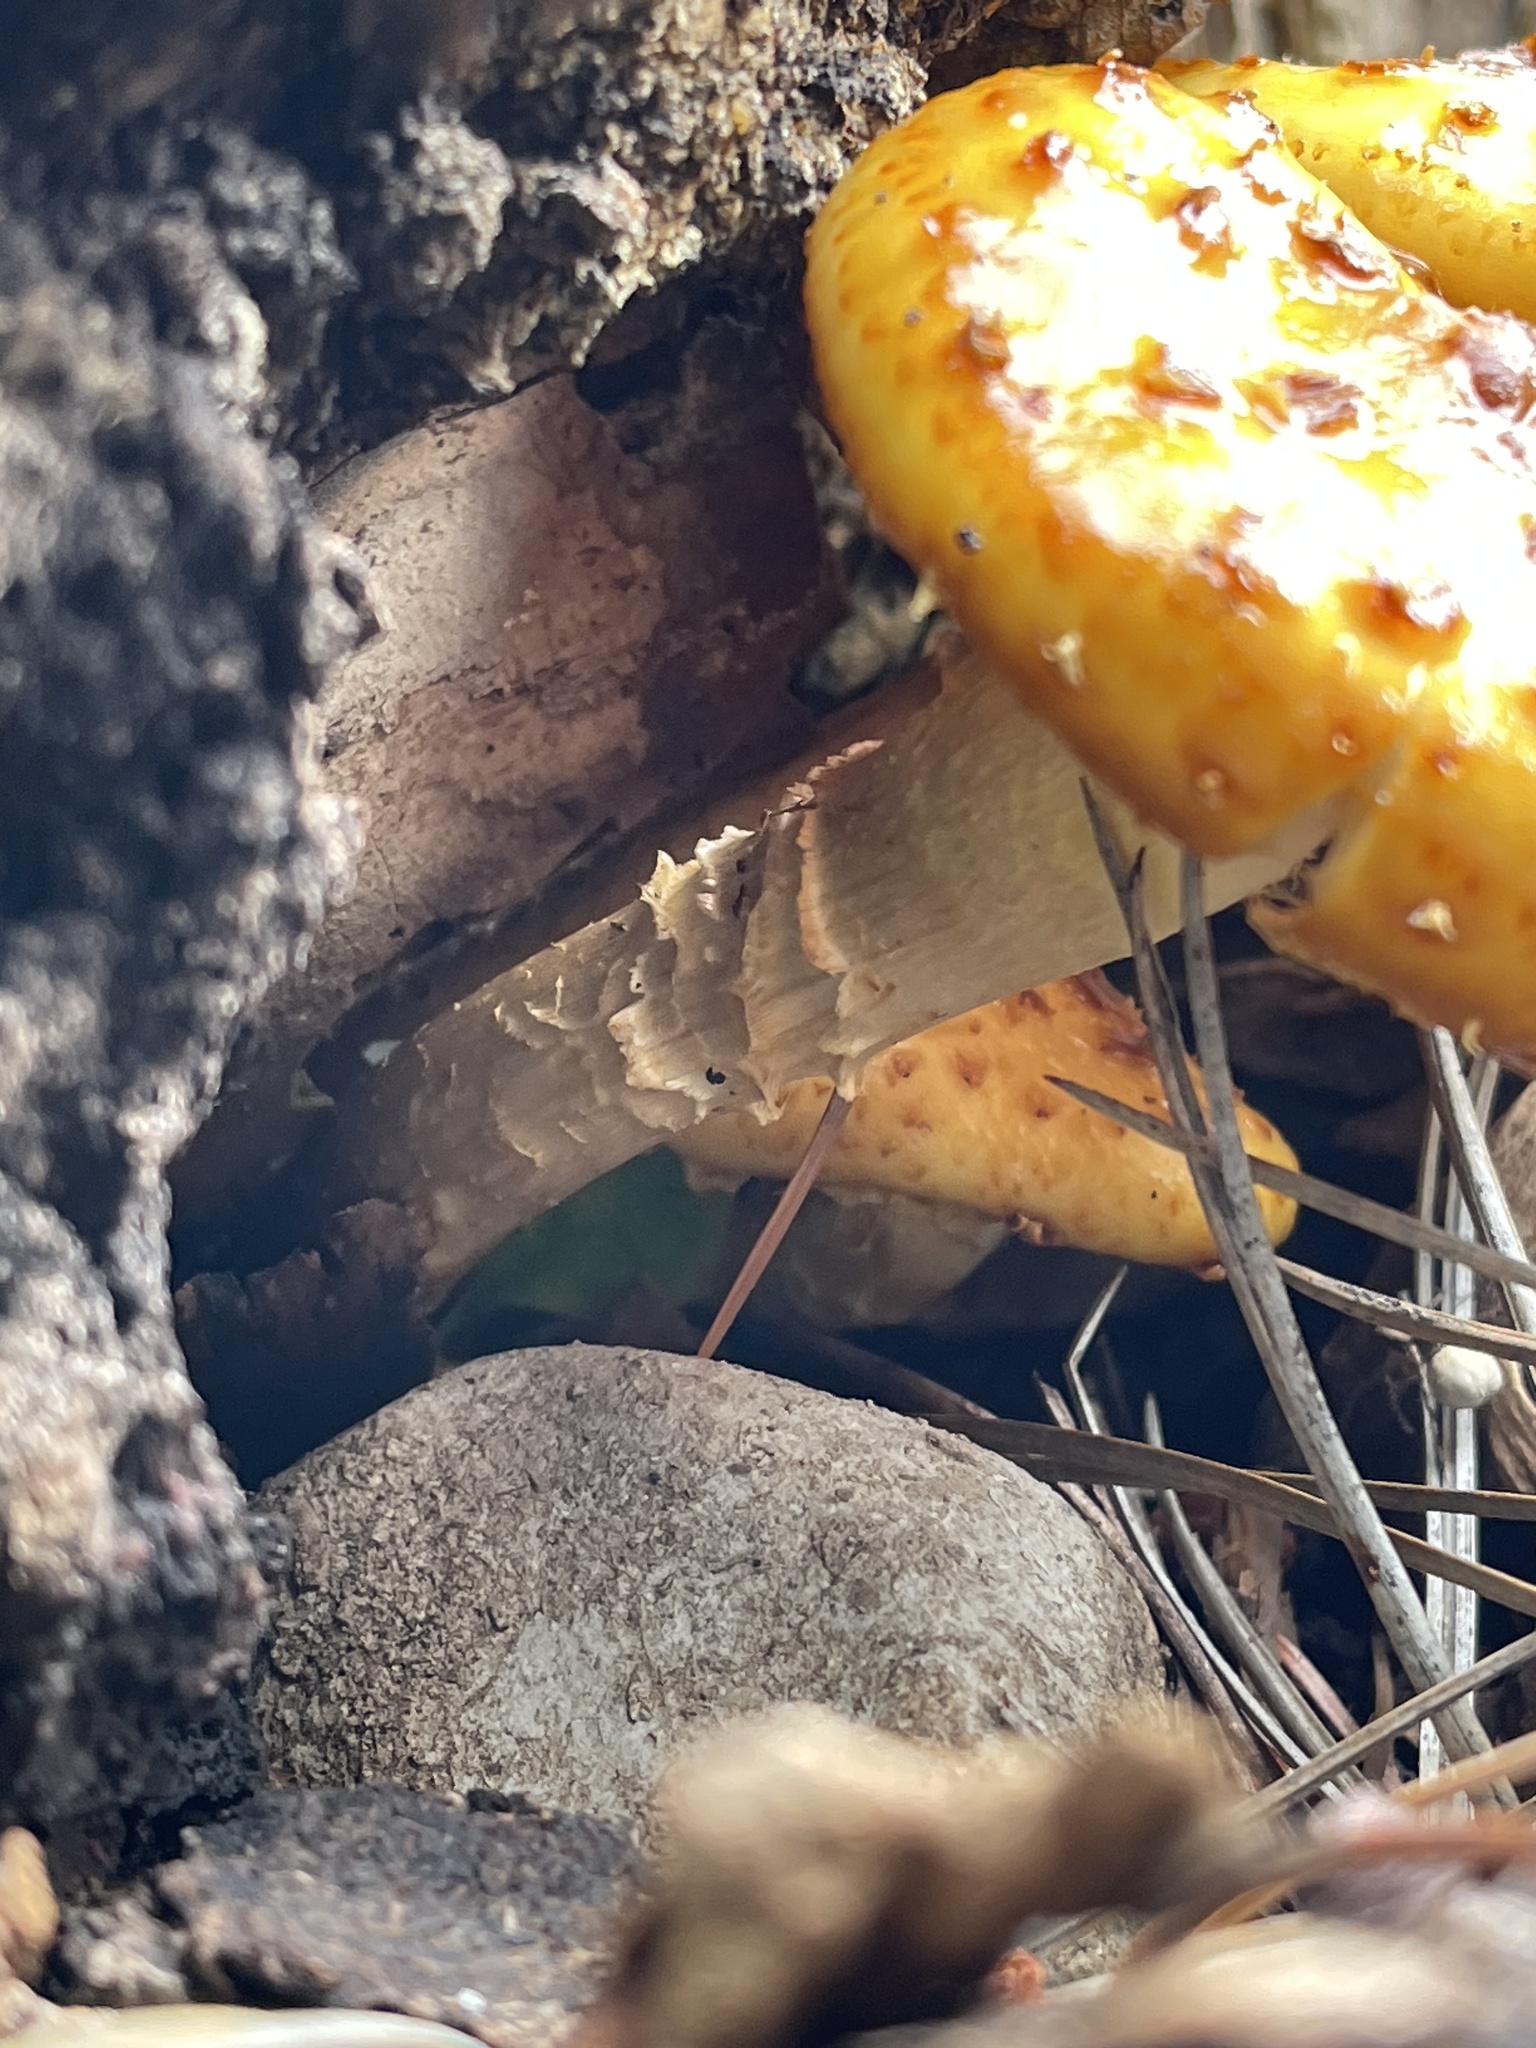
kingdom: Fungi
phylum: Basidiomycota
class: Agaricomycetes
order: Agaricales
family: Strophariaceae
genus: Pholiota
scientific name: Pholiota aurivella
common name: Golden scalycap
